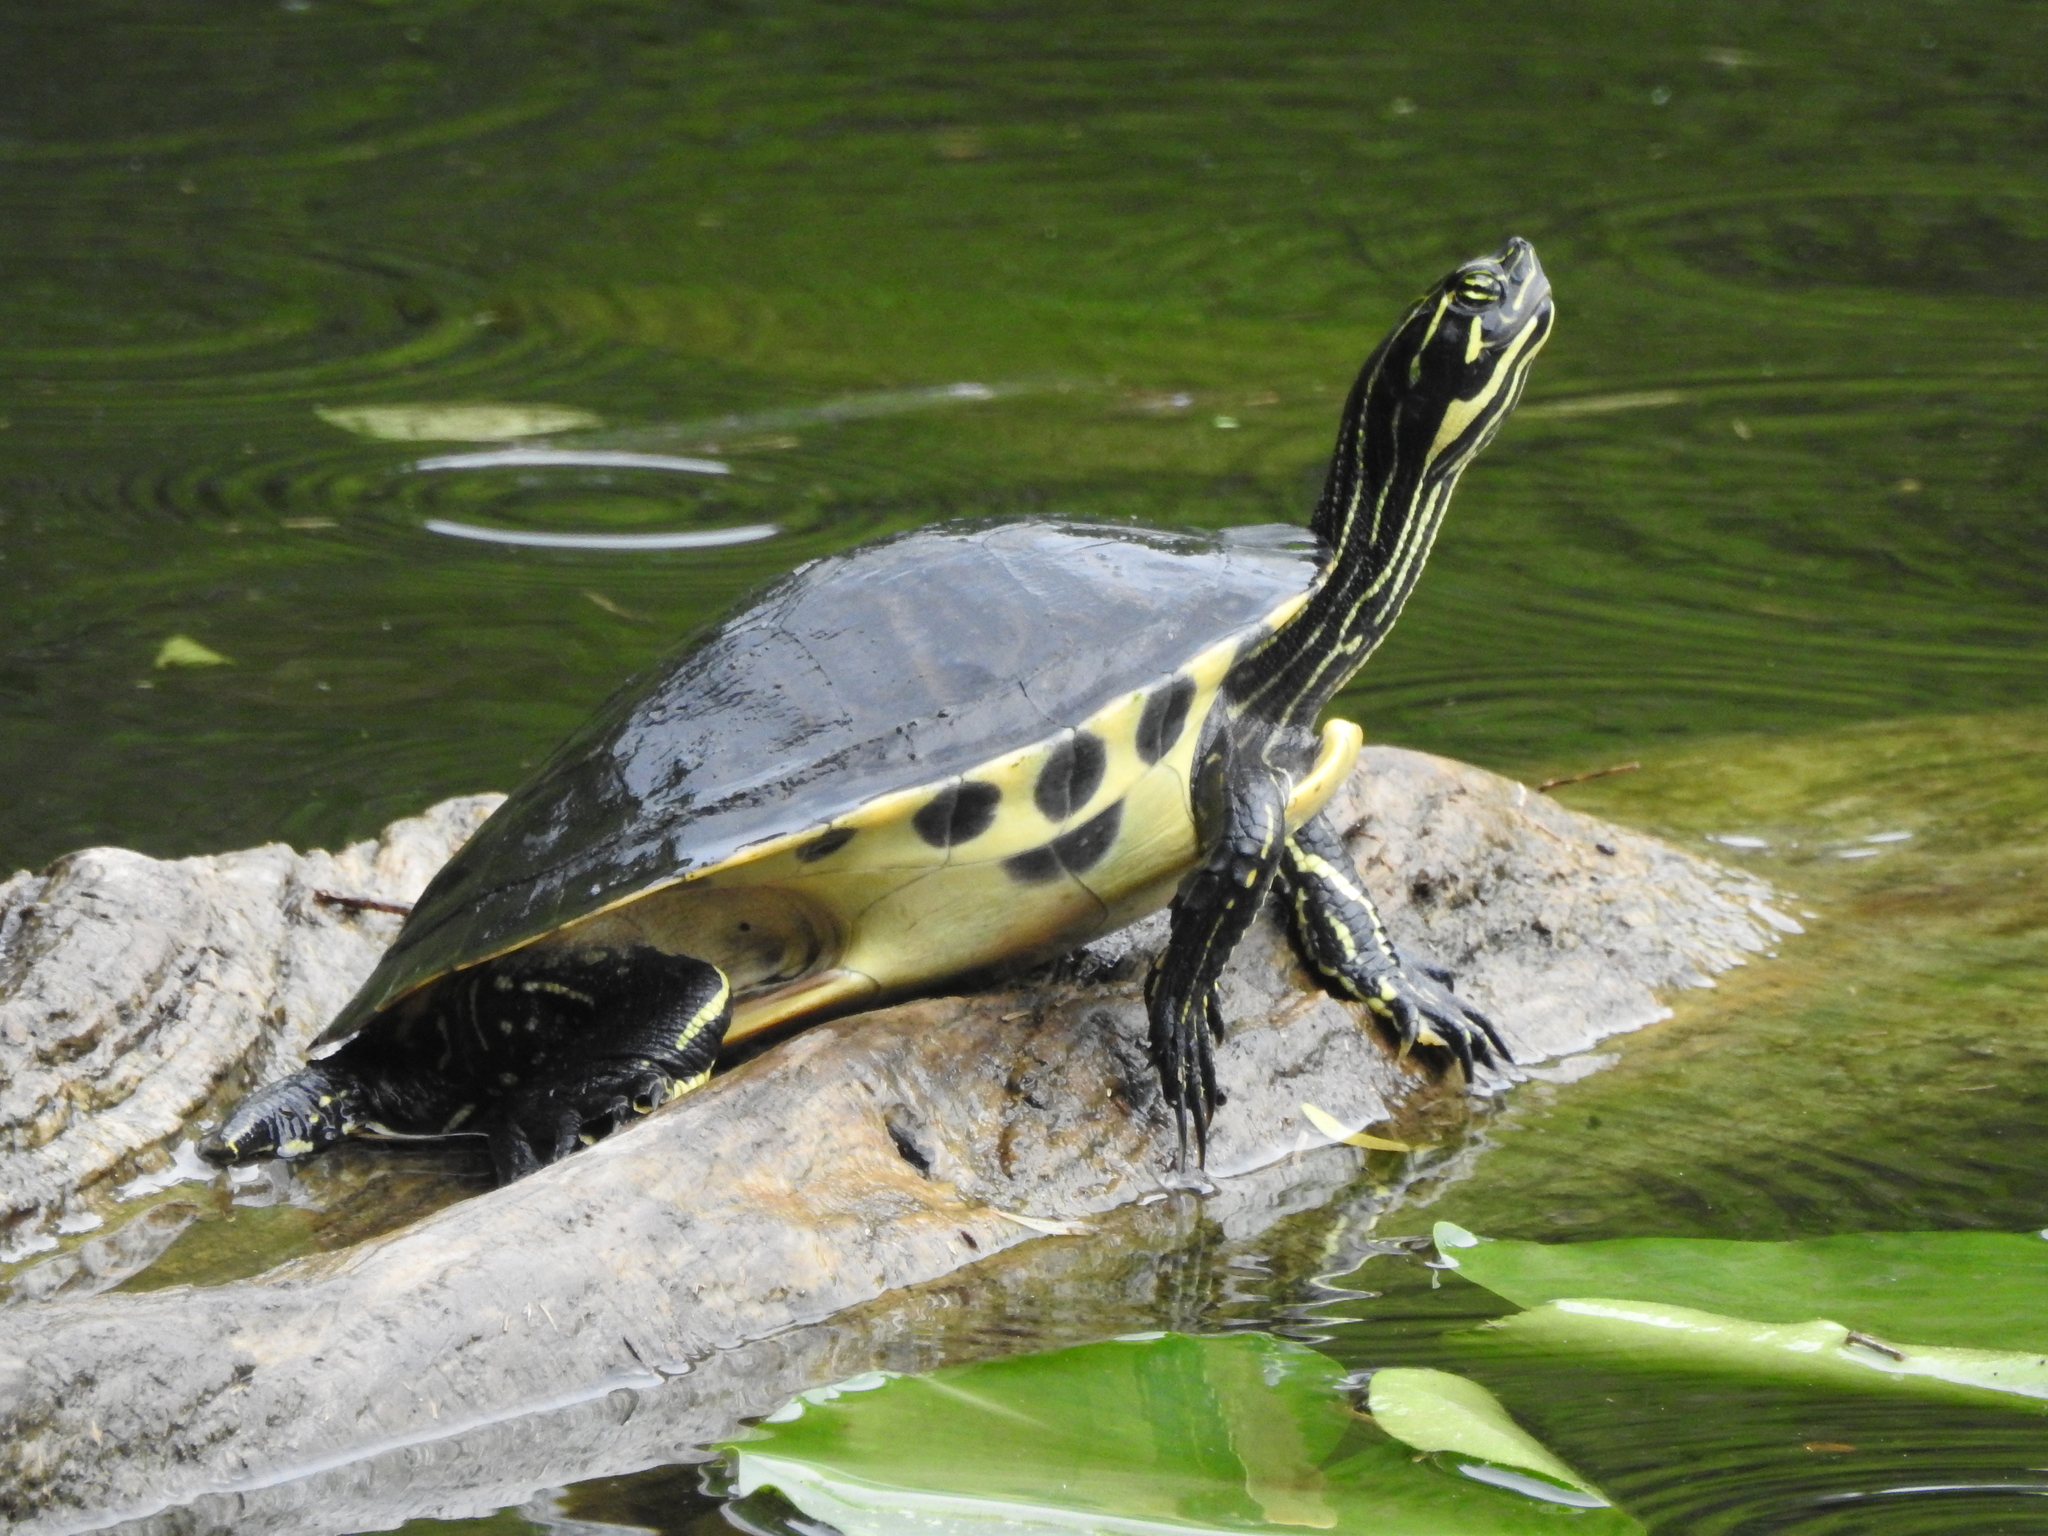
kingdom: Animalia
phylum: Chordata
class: Testudines
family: Emydidae
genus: Pseudemys
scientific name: Pseudemys peninsularis
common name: Peninsula cooter
